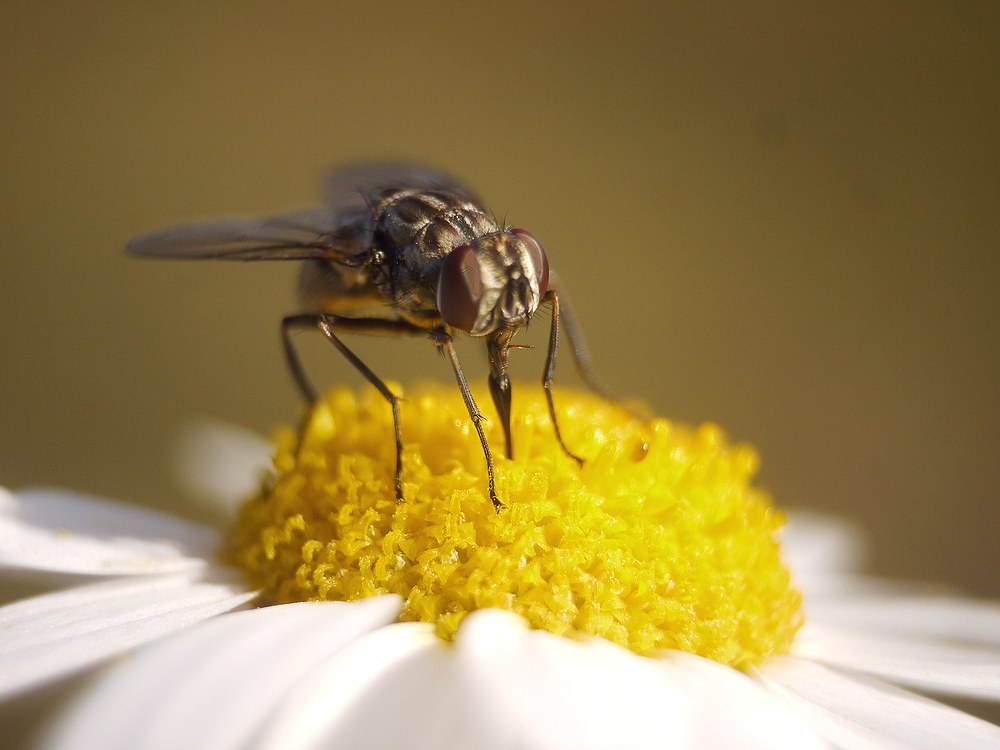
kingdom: Animalia
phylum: Arthropoda
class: Insecta
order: Diptera
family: Muscidae
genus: Stomoxys
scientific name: Stomoxys calcitrans
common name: Stable fly
